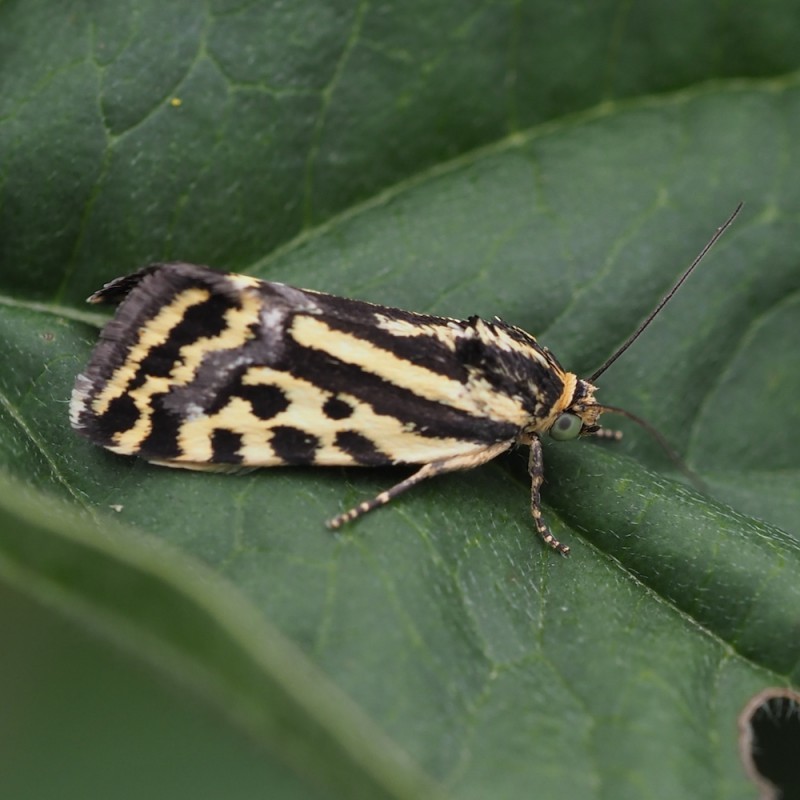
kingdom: Animalia
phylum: Arthropoda
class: Insecta
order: Lepidoptera
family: Noctuidae
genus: Acontia
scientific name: Acontia trabealis
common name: Spotted sulphur
